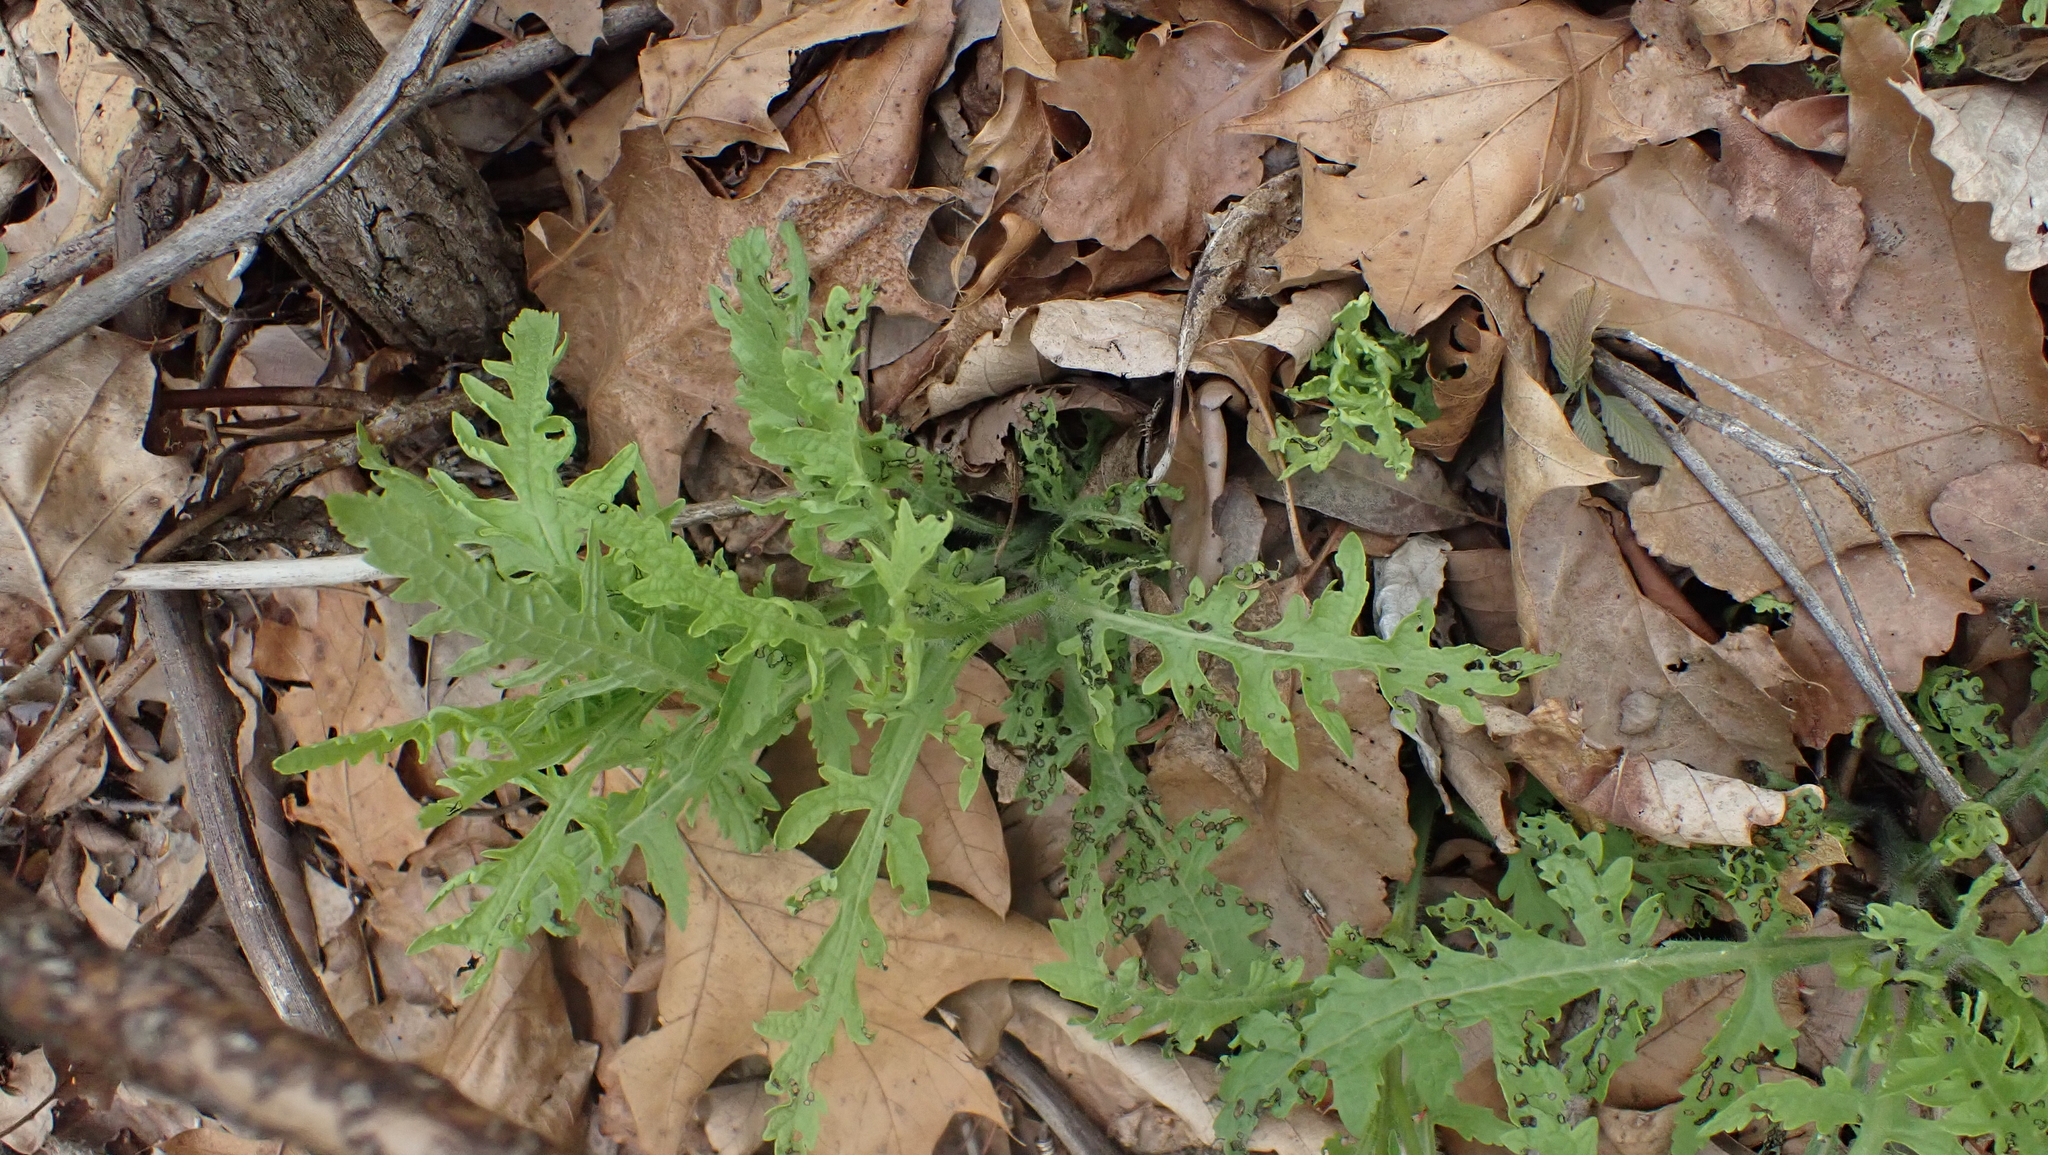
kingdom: Plantae
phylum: Tracheophyta
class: Magnoliopsida
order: Lamiales
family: Orobanchaceae
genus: Dasistoma
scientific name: Dasistoma macrophyllum
